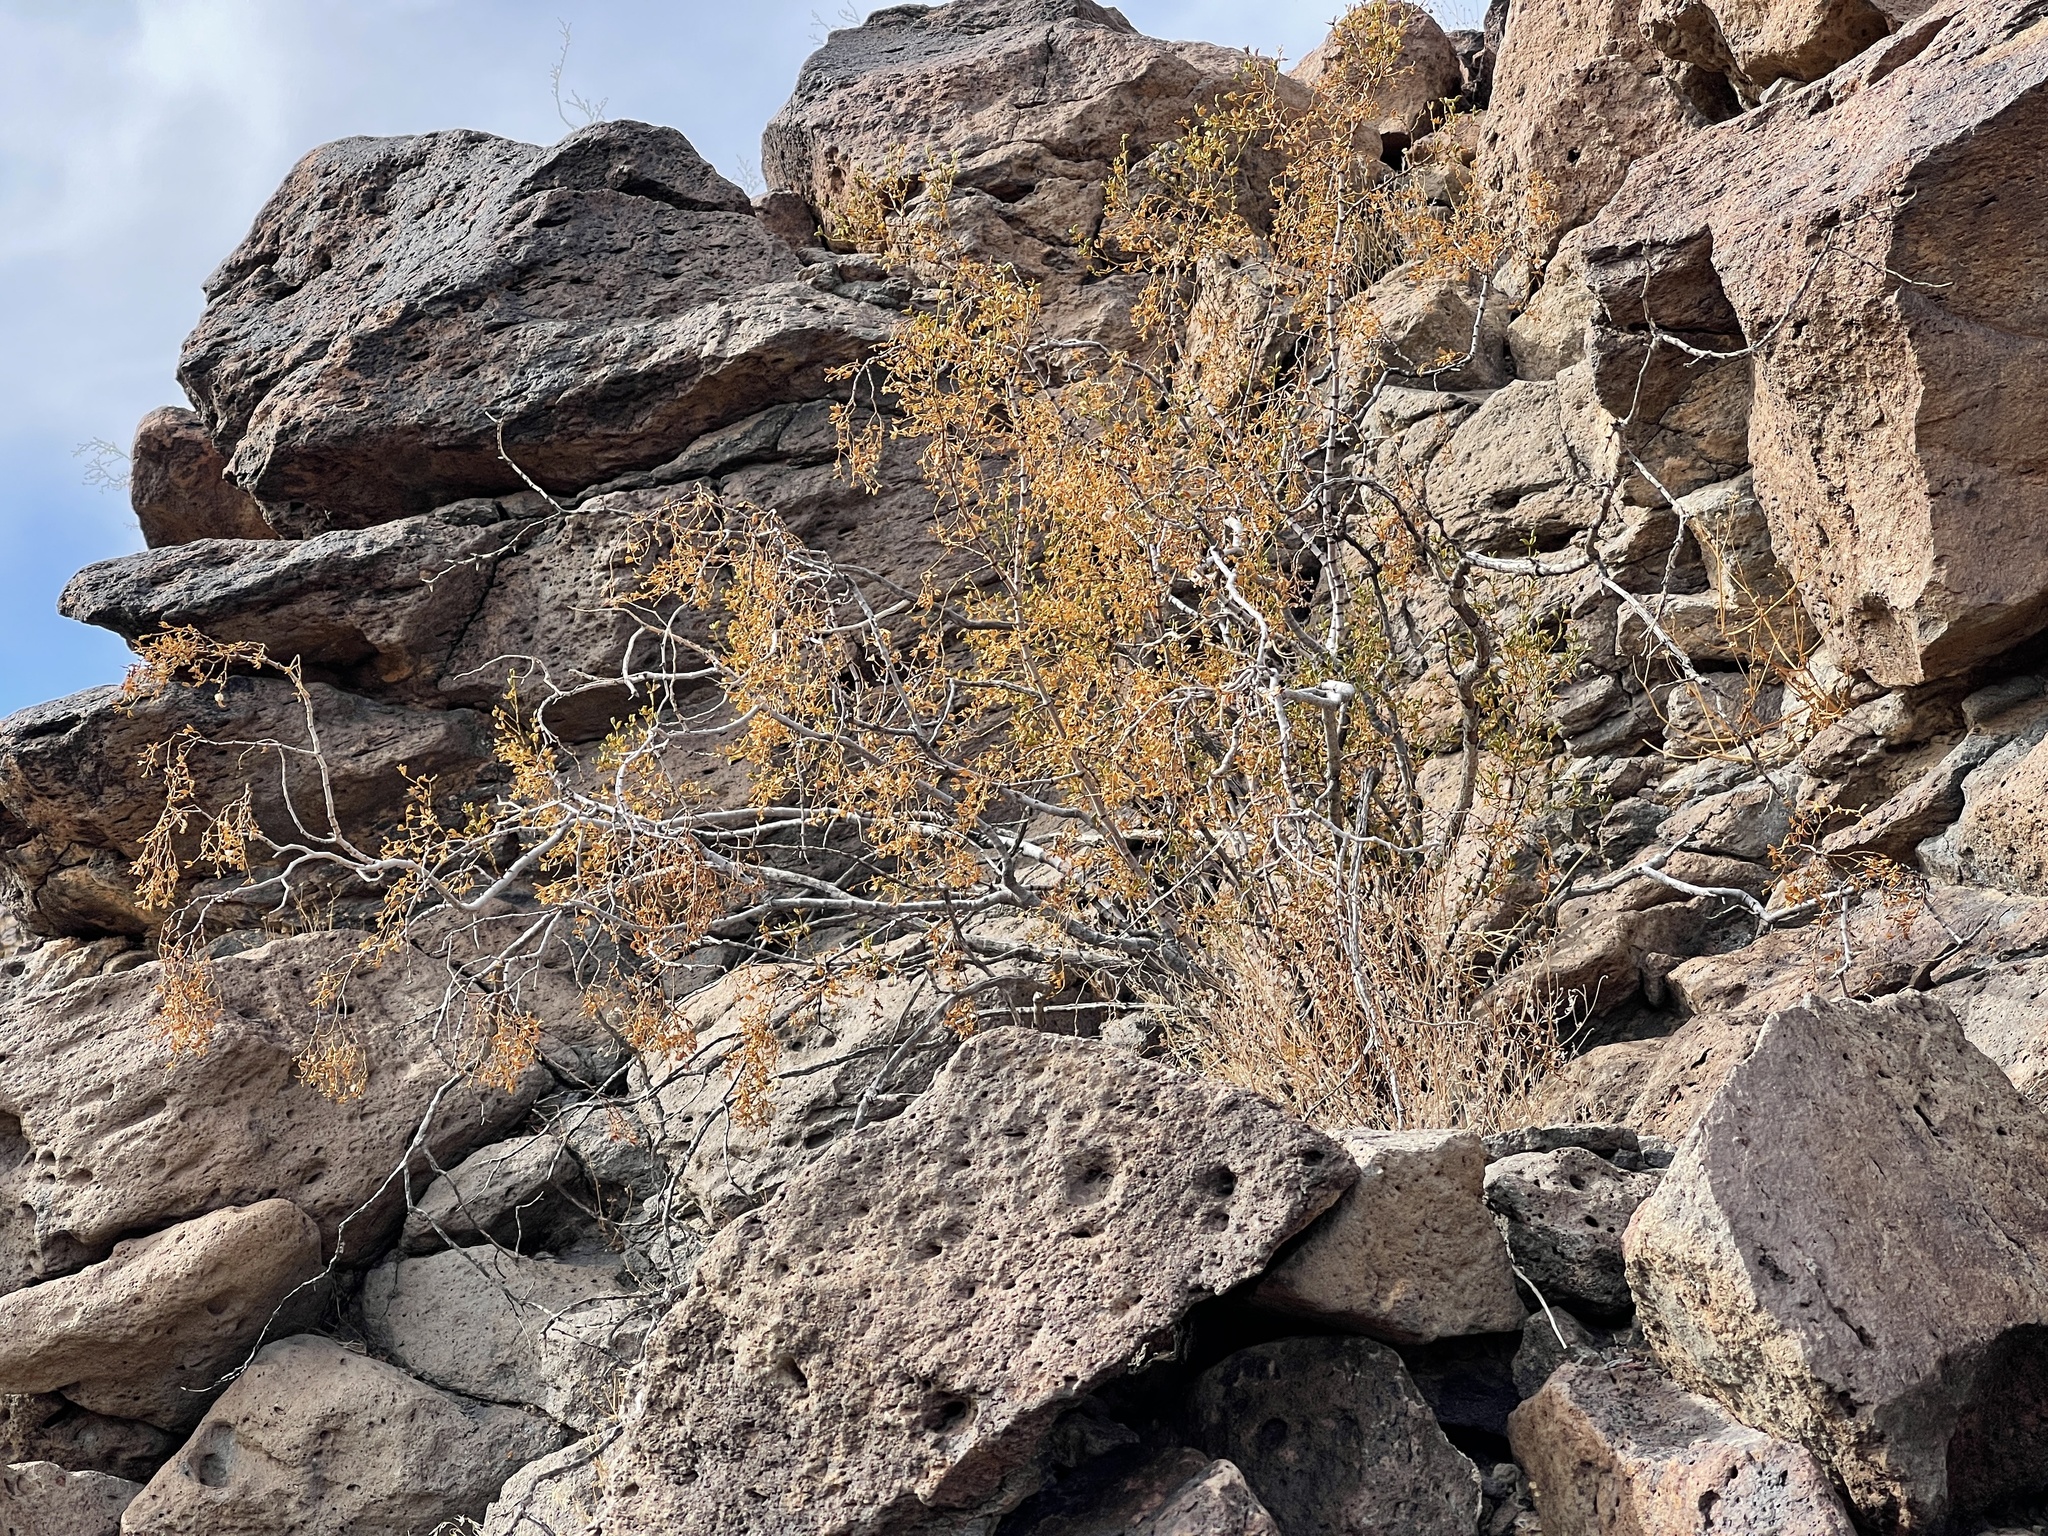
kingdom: Plantae
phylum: Tracheophyta
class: Magnoliopsida
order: Zygophyllales
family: Zygophyllaceae
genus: Larrea
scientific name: Larrea tridentata
